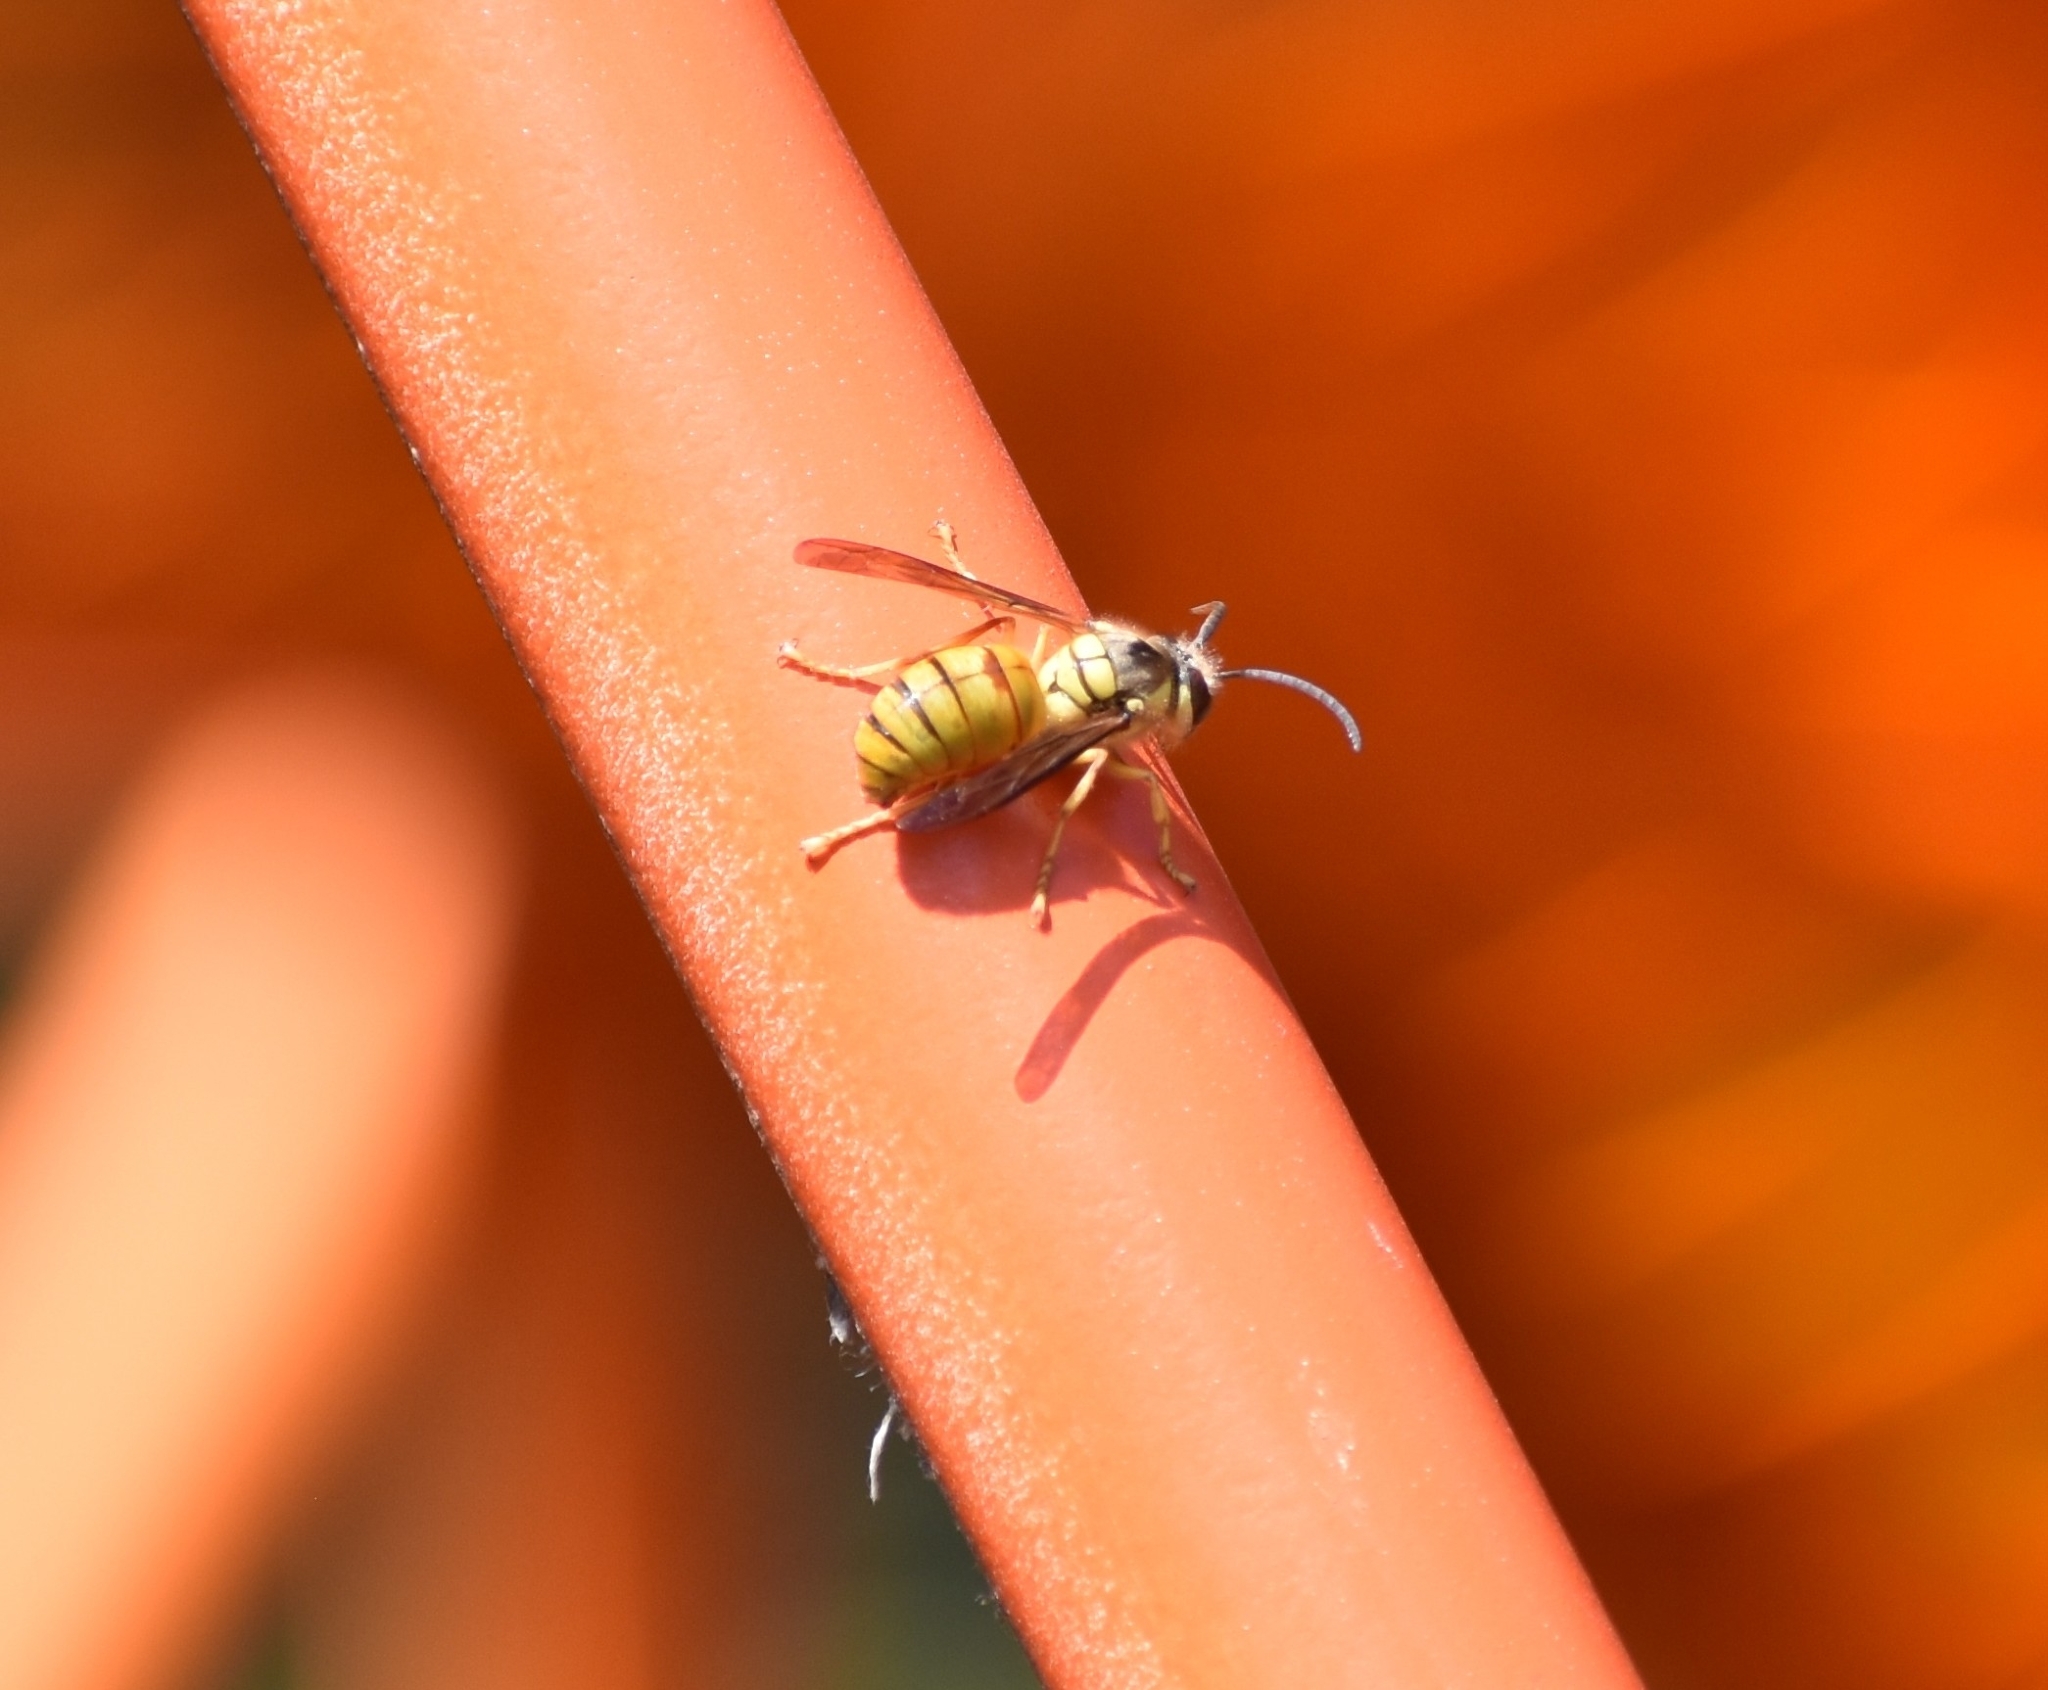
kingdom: Animalia
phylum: Arthropoda
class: Insecta
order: Hymenoptera
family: Vespidae
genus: Vespa
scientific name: Vespa bicolor
